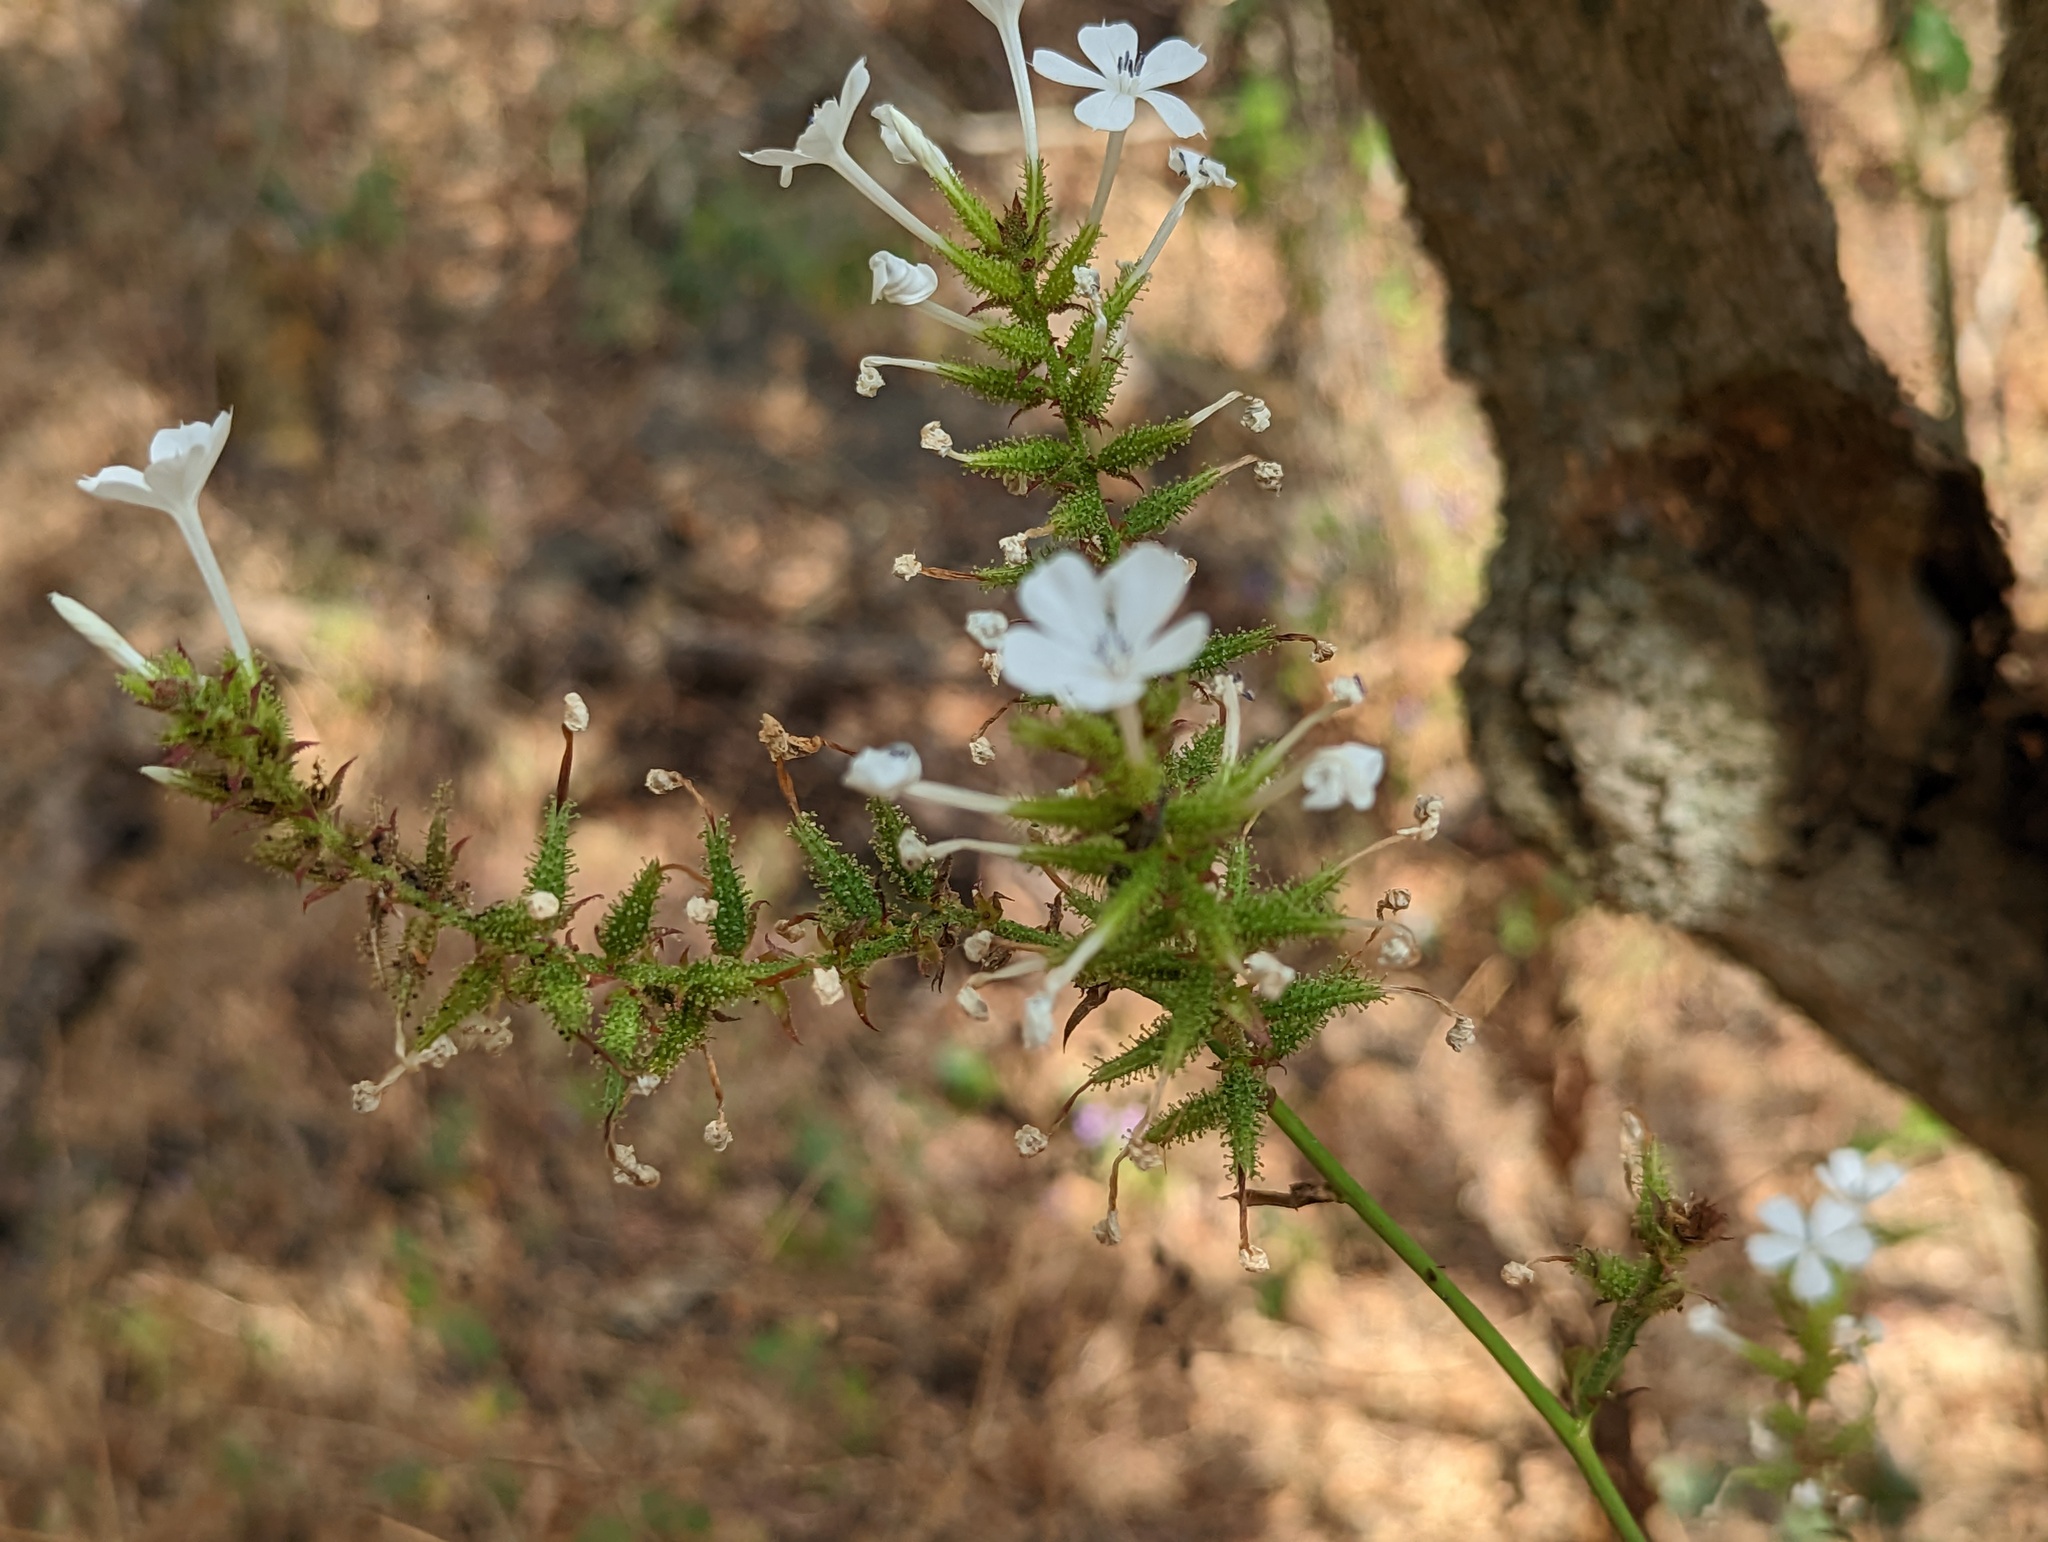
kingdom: Plantae
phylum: Tracheophyta
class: Magnoliopsida
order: Caryophyllales
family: Plumbaginaceae
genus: Plumbago
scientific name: Plumbago zeylanica
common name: Doctorbush
